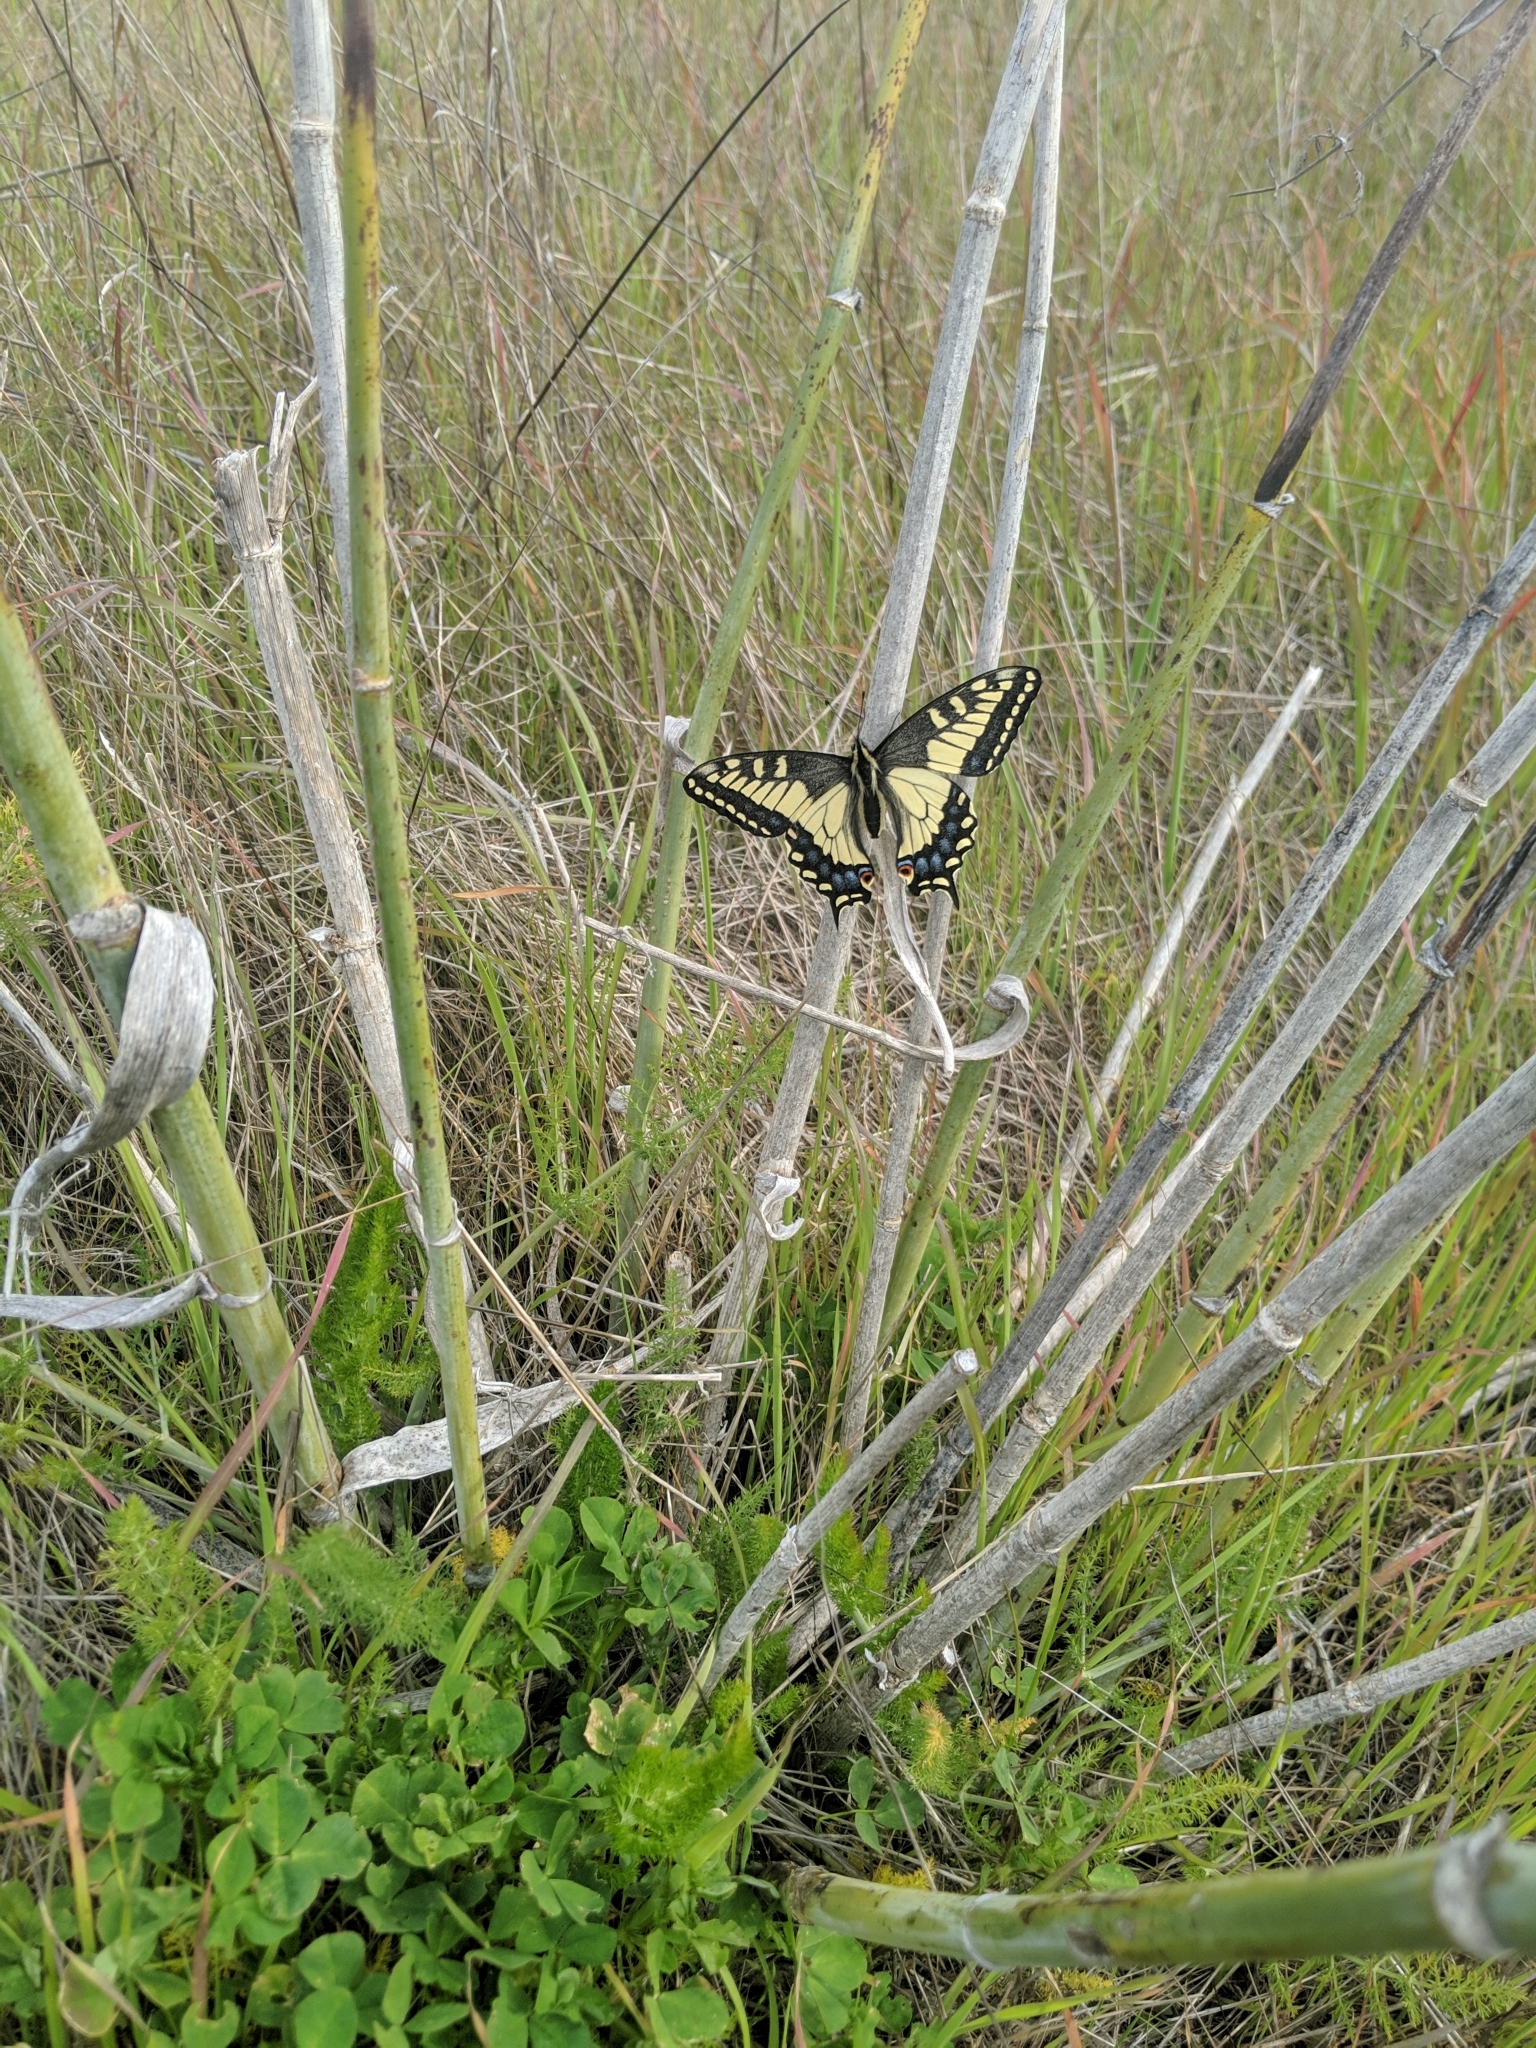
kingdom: Animalia
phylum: Arthropoda
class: Insecta
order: Lepidoptera
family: Papilionidae
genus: Papilio
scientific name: Papilio zelicaon
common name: Anise swallowtail
